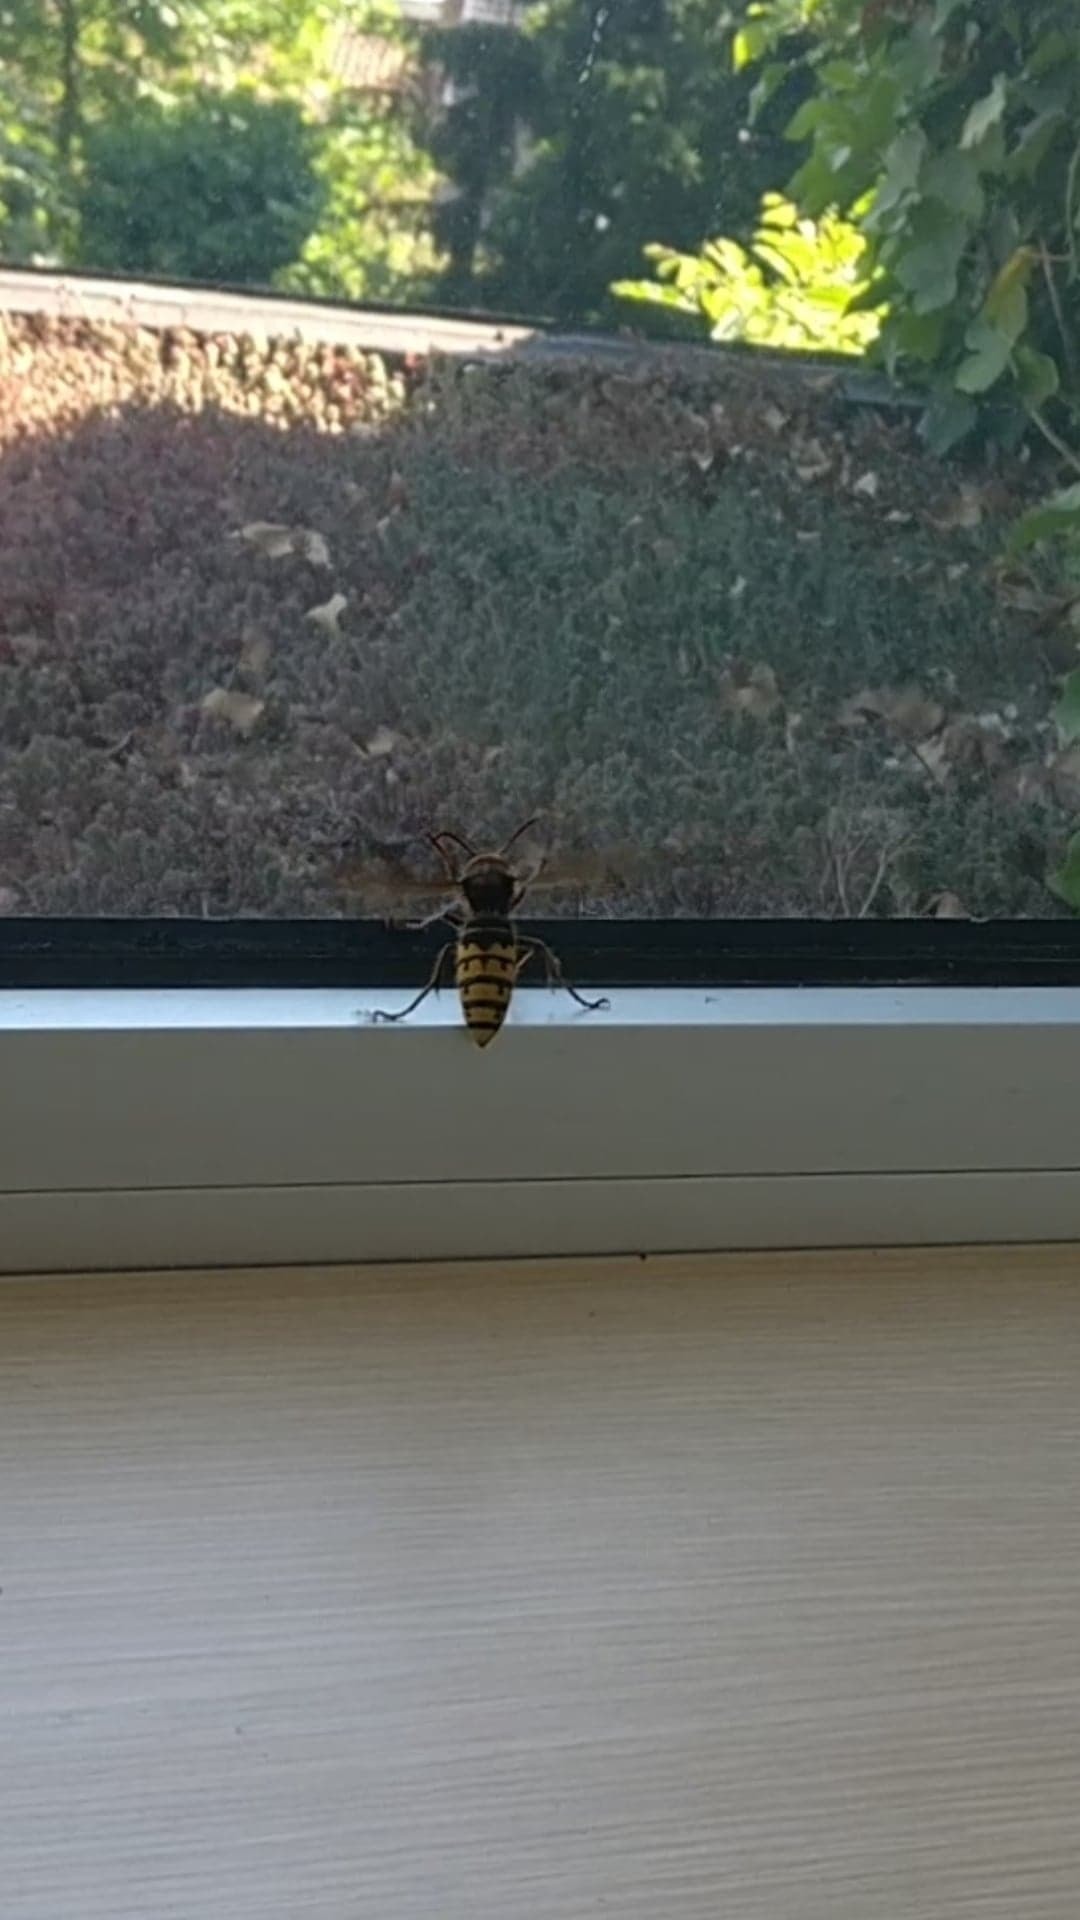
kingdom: Animalia
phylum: Arthropoda
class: Insecta
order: Hymenoptera
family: Vespidae
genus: Vespa
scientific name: Vespa crabro
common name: Hornet
